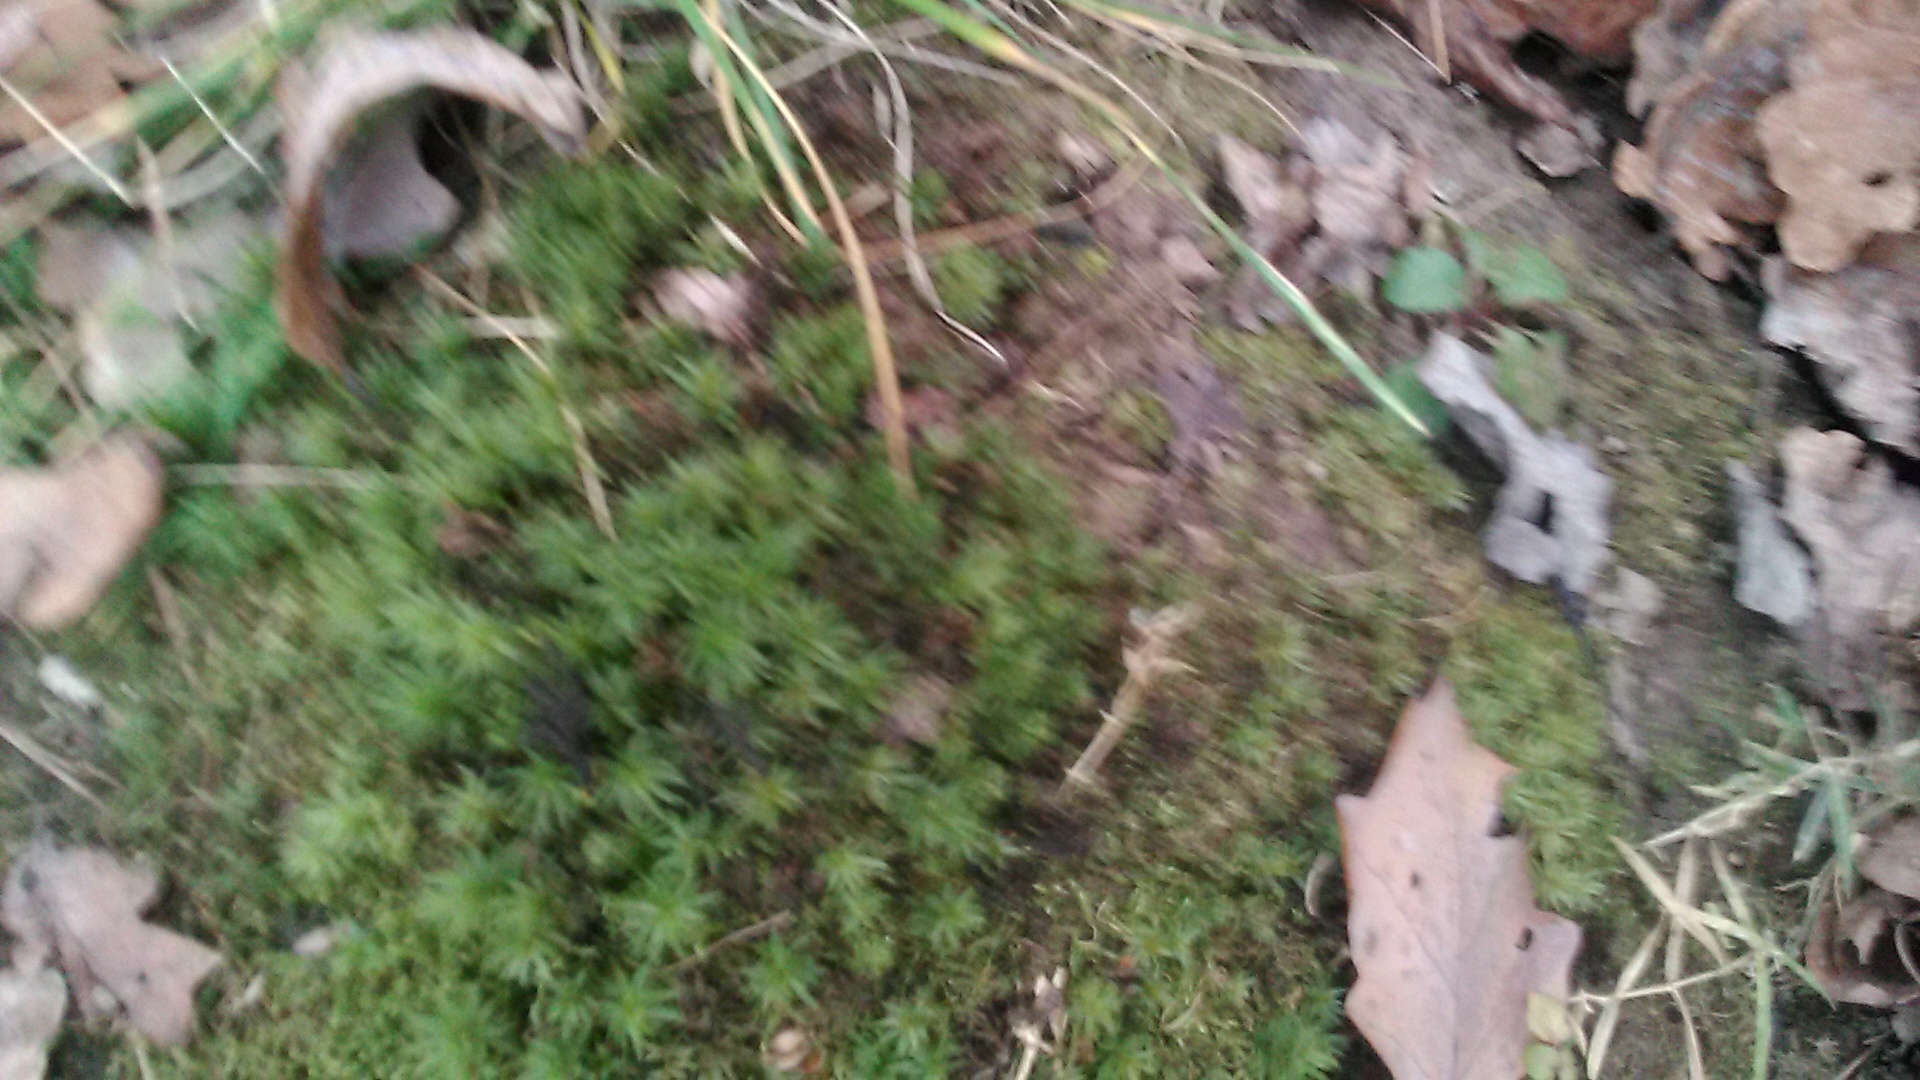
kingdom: Plantae
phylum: Bryophyta
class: Polytrichopsida
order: Polytrichales
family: Polytrichaceae
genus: Atrichum
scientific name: Atrichum undulatum
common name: Common smoothcap
